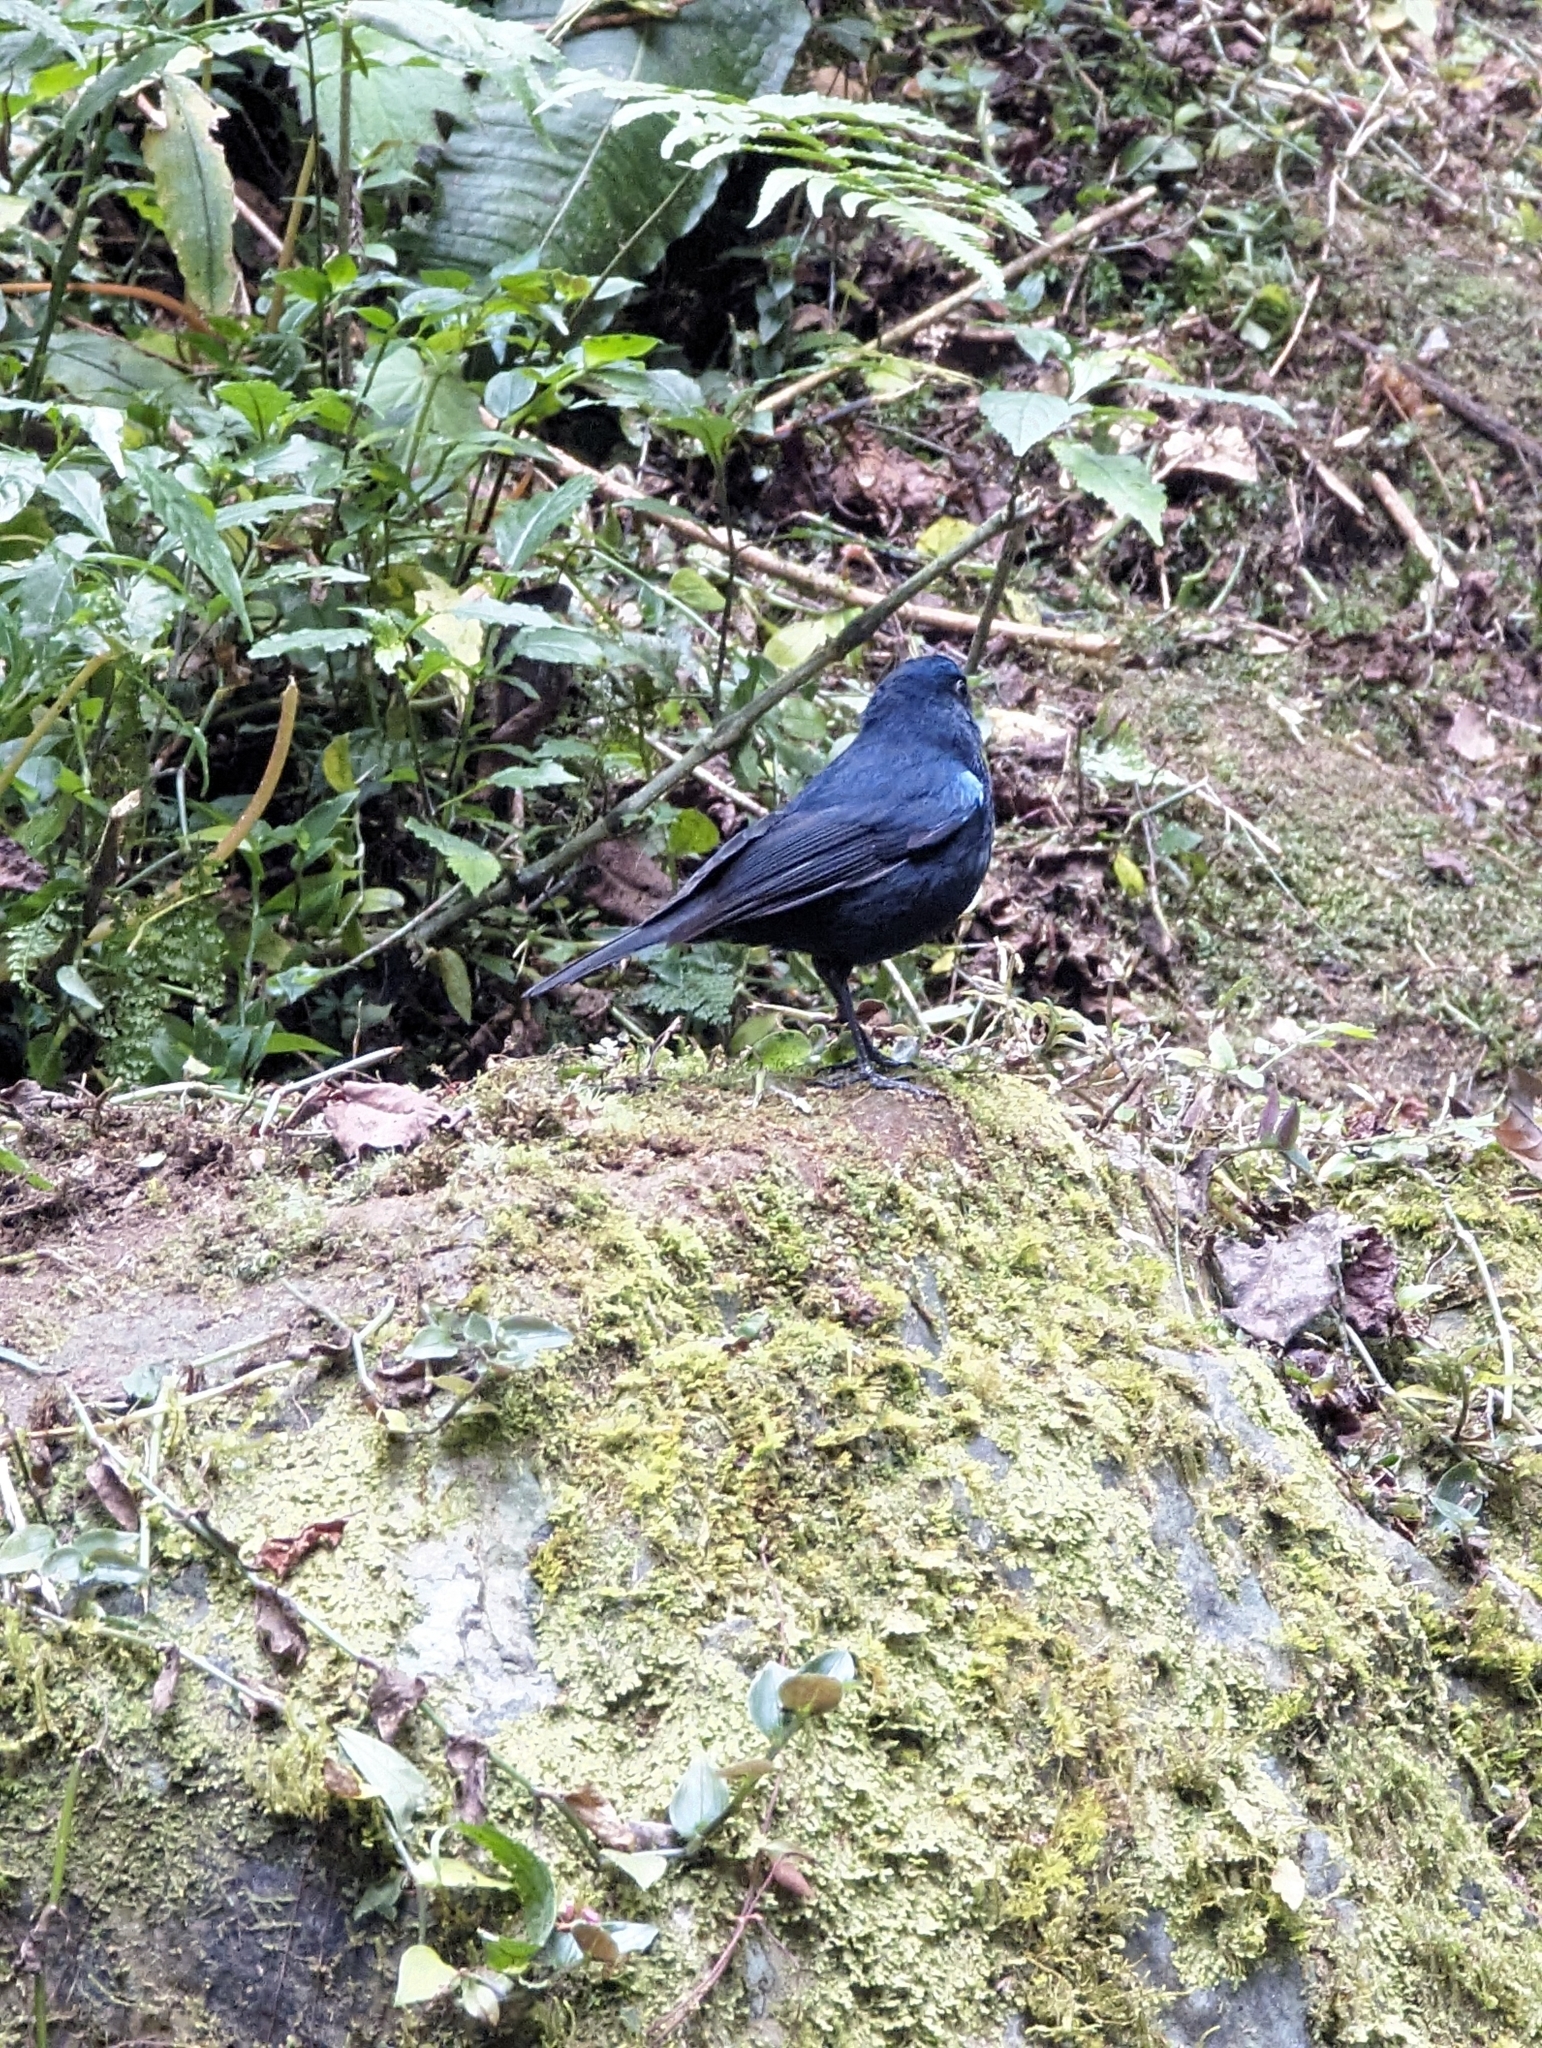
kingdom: Animalia
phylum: Chordata
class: Aves
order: Passeriformes
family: Muscicapidae
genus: Myiomela
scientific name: Myiomela leucura
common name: White-tailed robin
